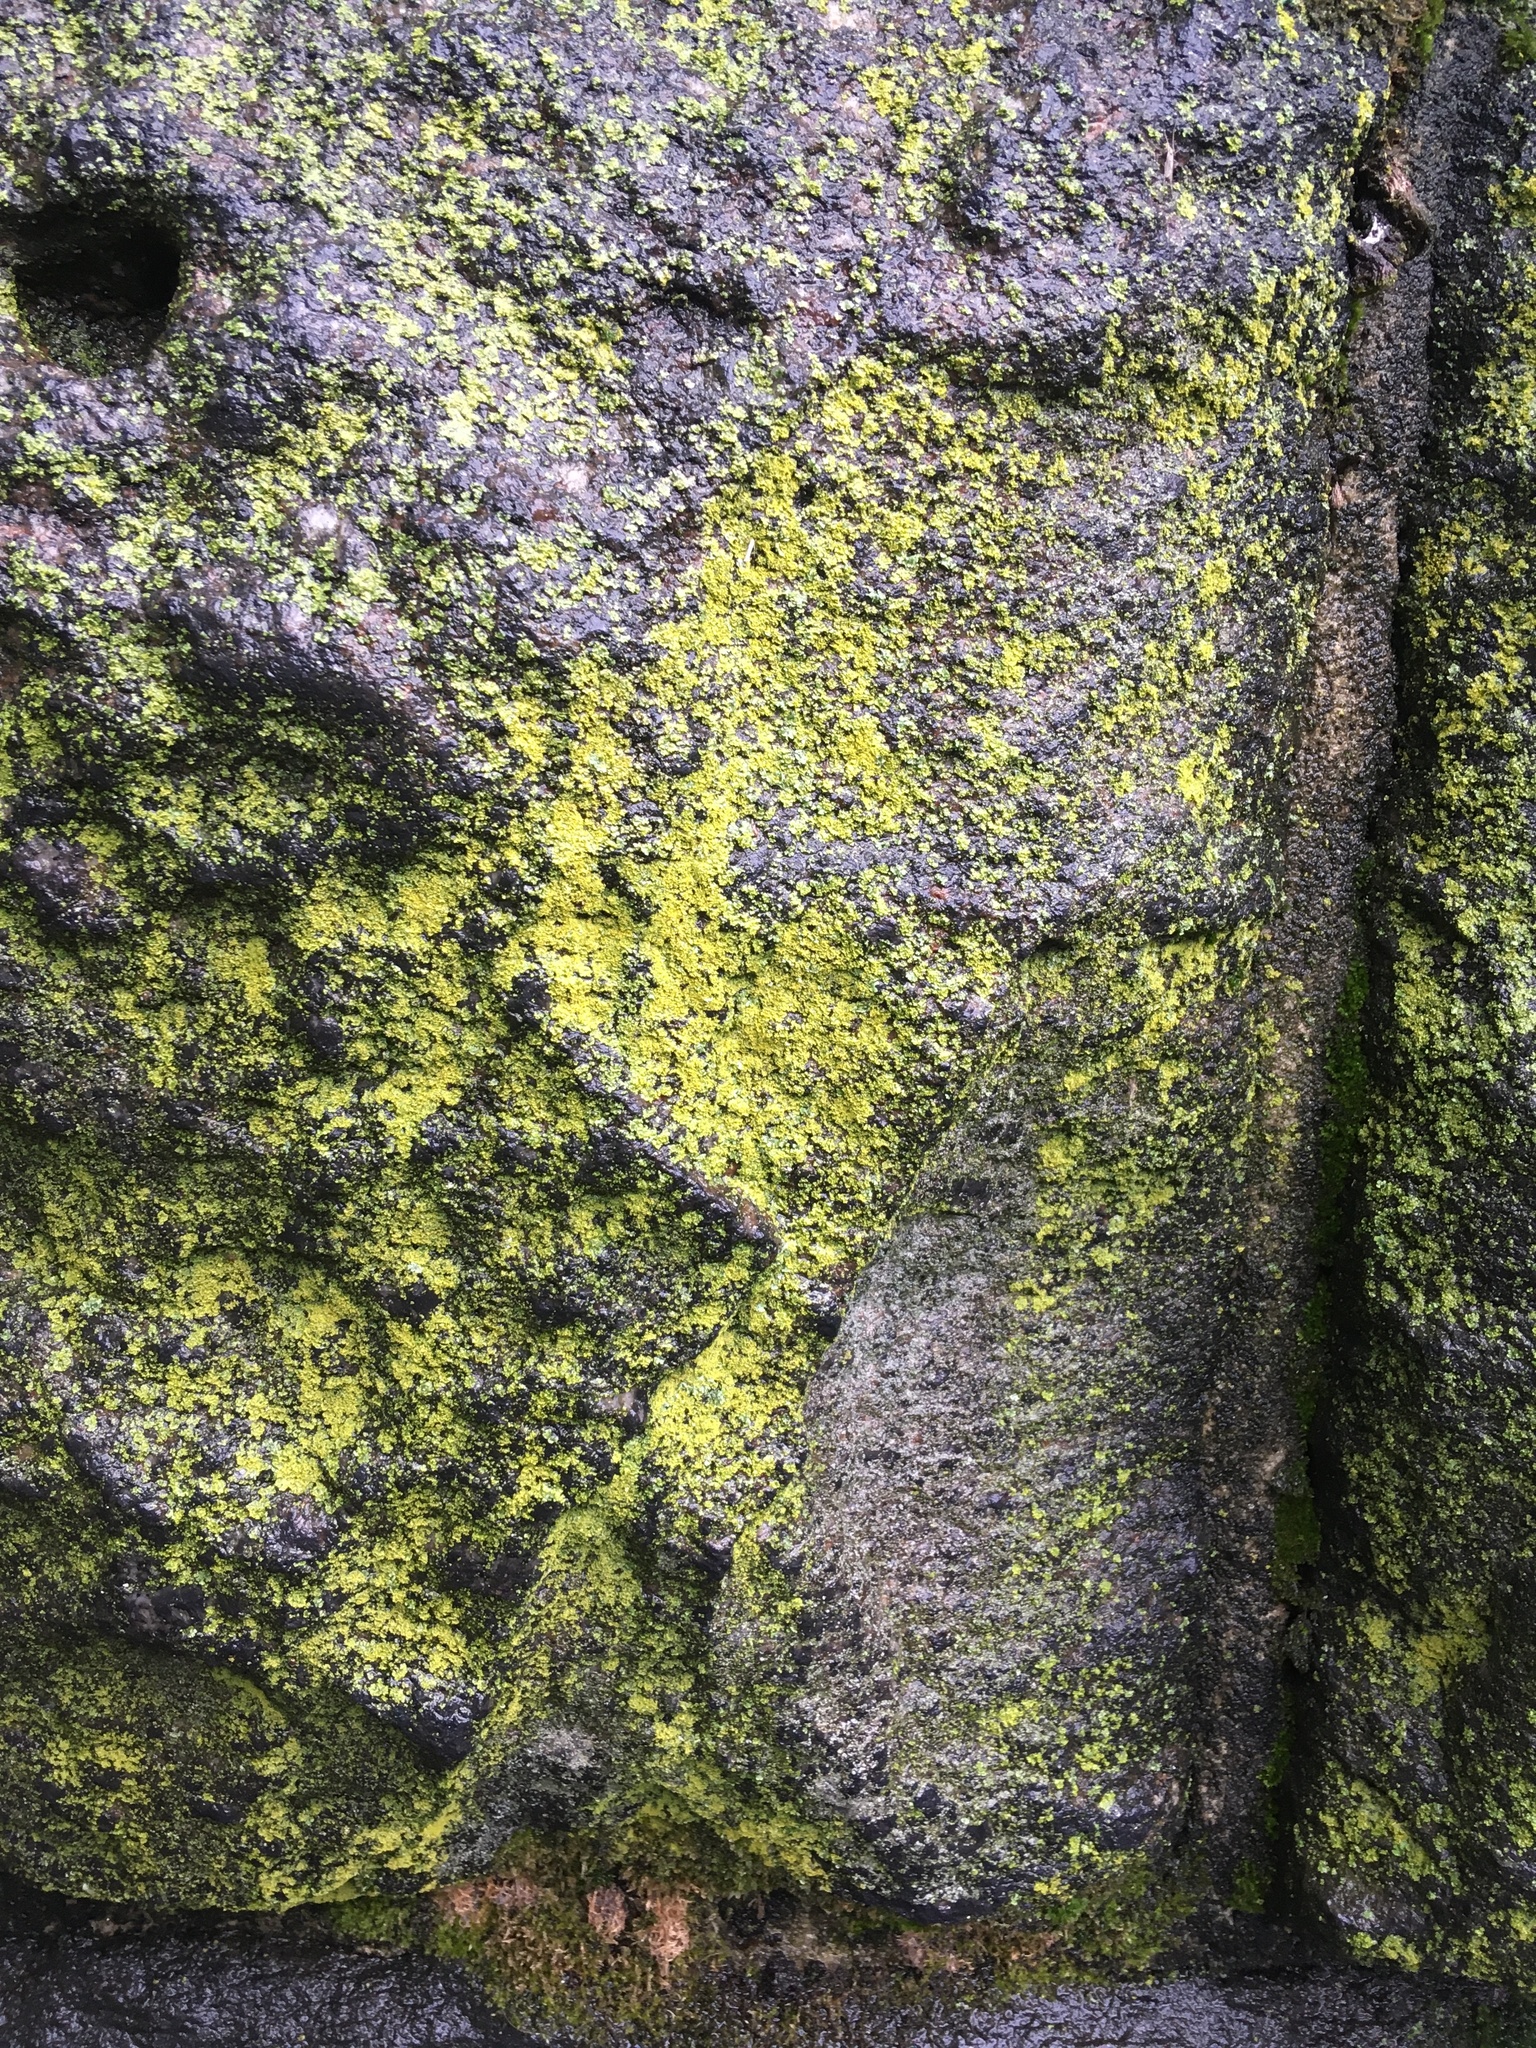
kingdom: Fungi
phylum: Ascomycota
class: Candelariomycetes
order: Candelariales
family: Candelariaceae
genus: Candelaria
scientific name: Candelaria concolor
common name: Candleflame lichen
